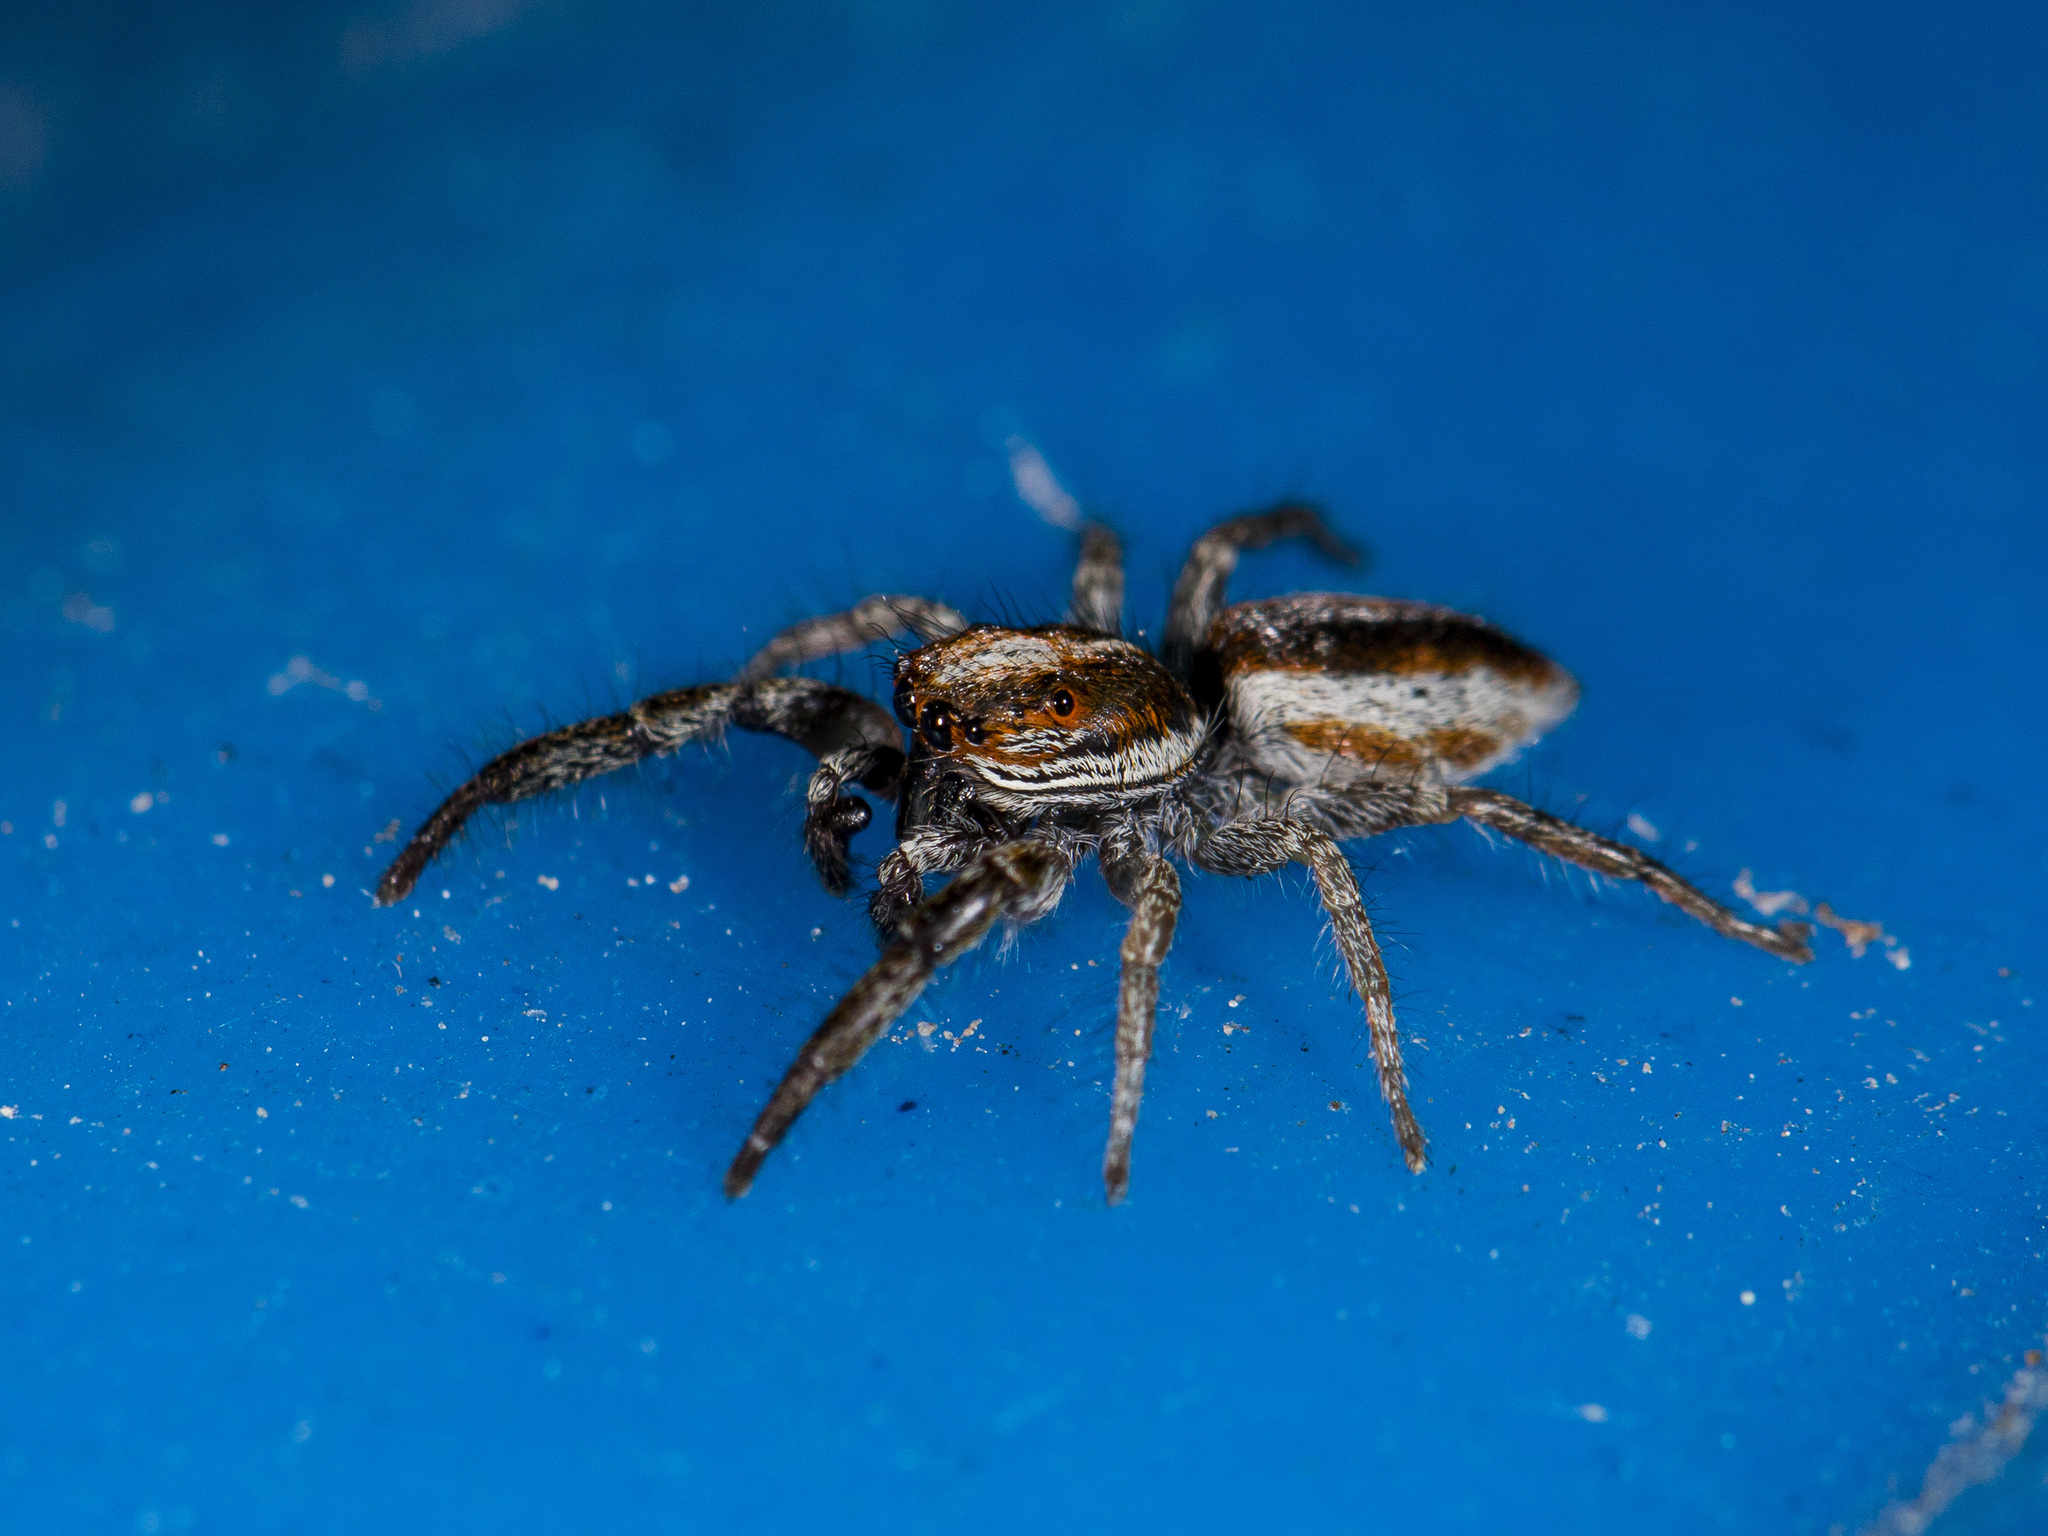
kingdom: Animalia
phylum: Arthropoda
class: Arachnida
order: Araneae
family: Salticidae
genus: Rudakius
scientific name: Rudakius cinctus
